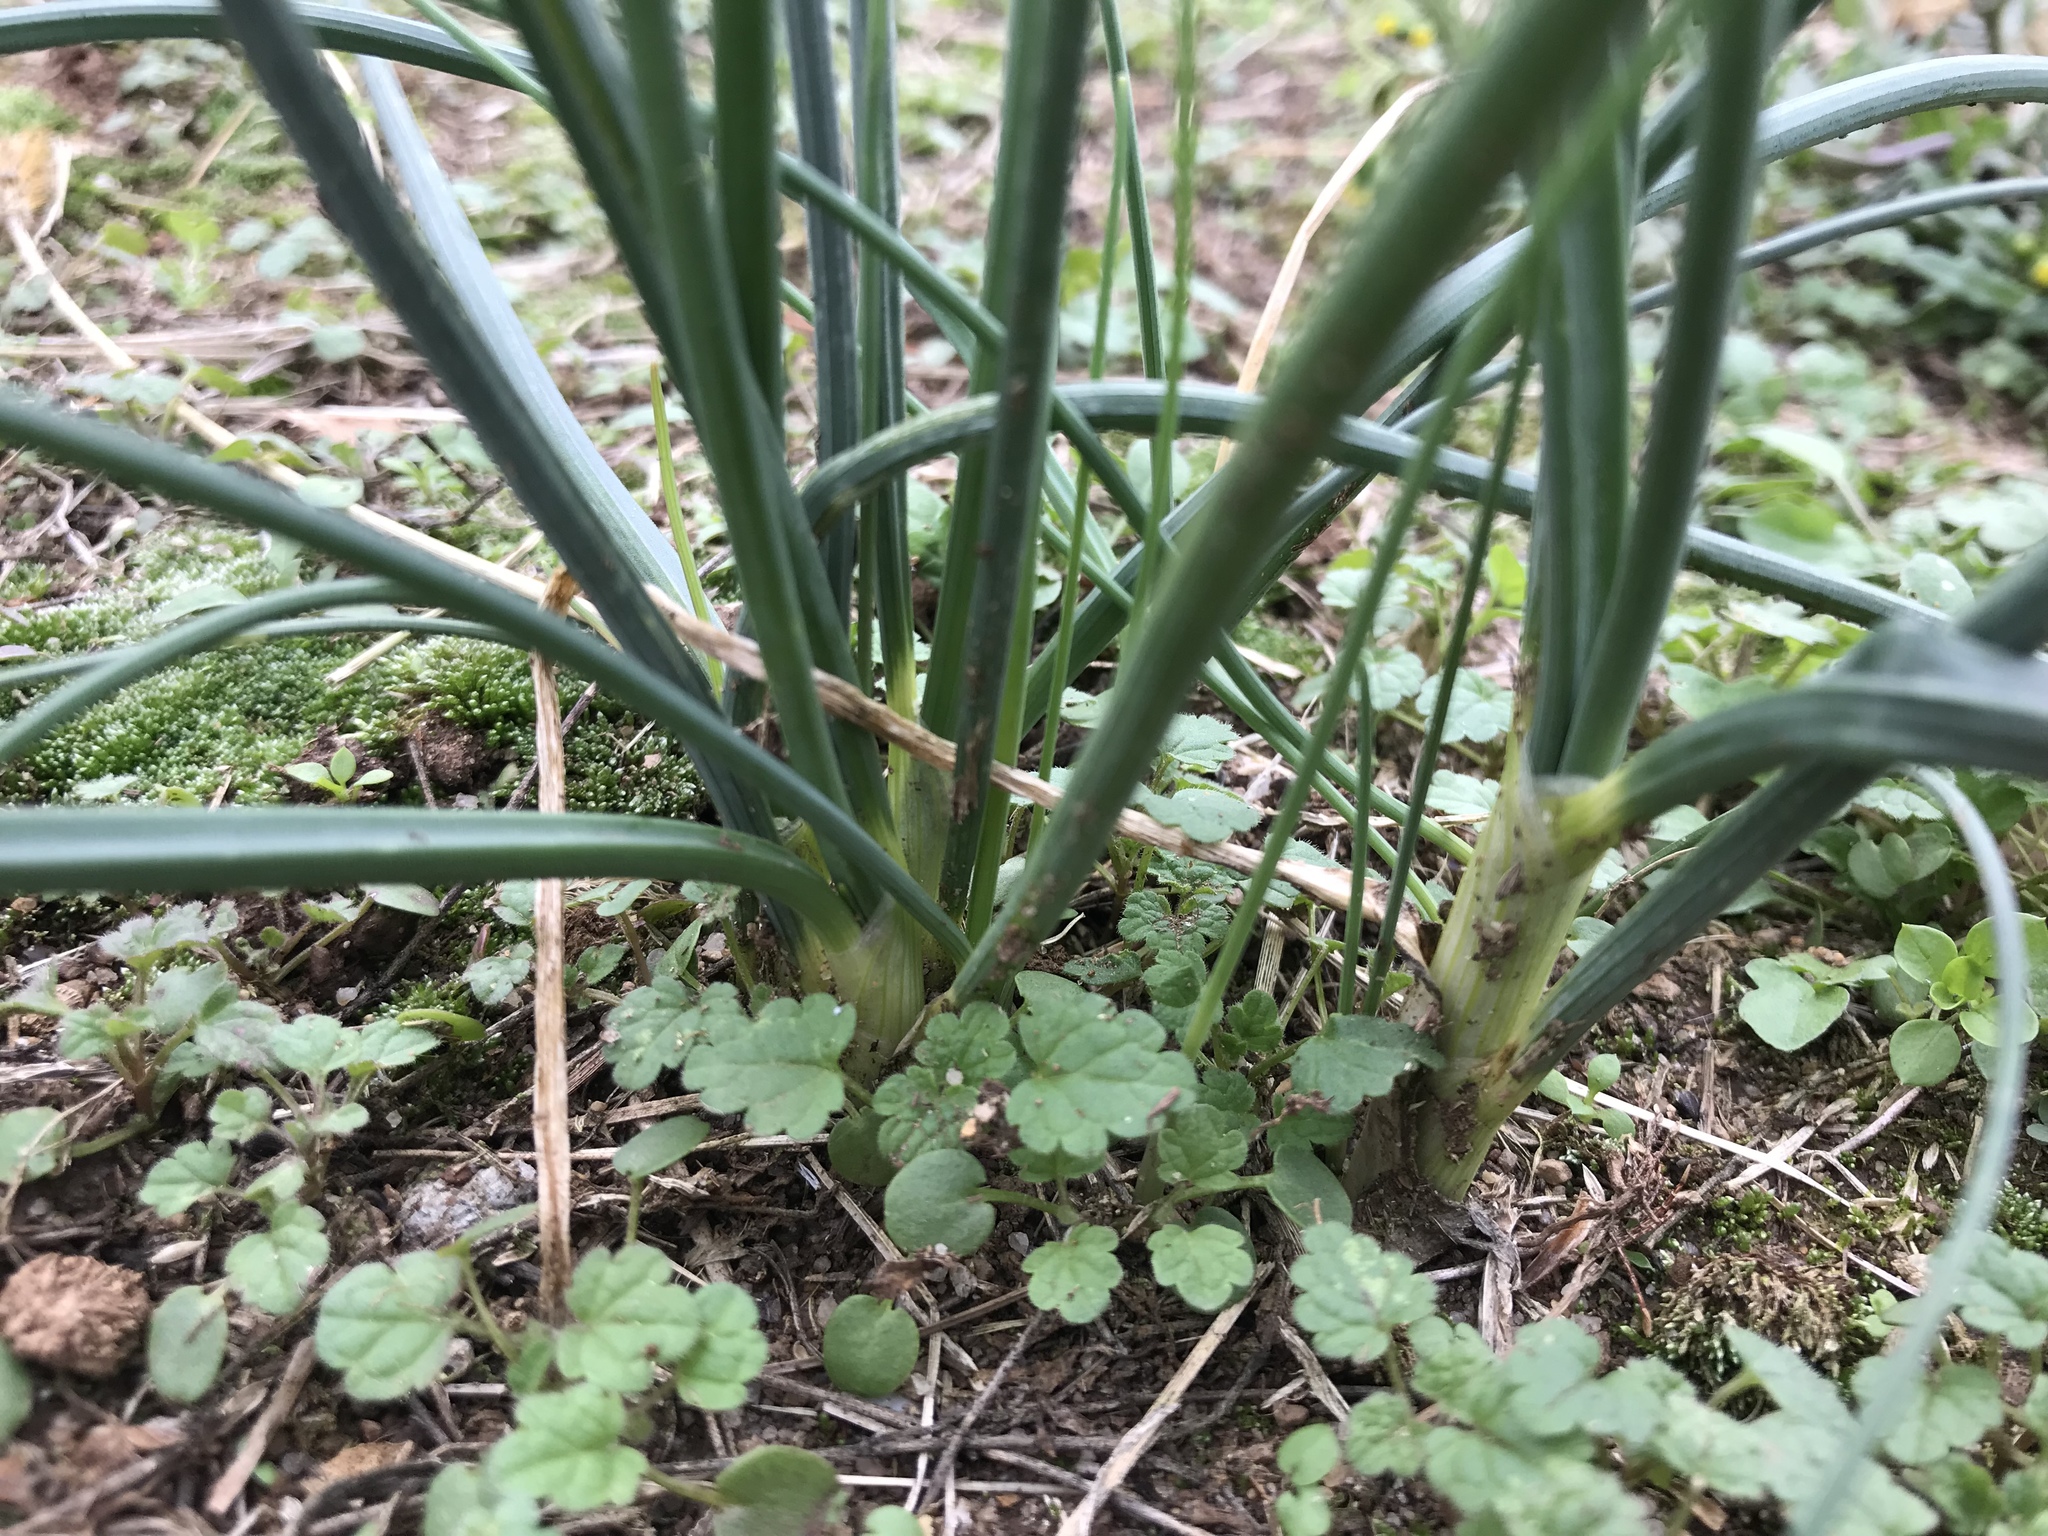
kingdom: Plantae
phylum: Tracheophyta
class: Liliopsida
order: Asparagales
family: Amaryllidaceae
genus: Allium
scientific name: Allium vineale
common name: Crow garlic
